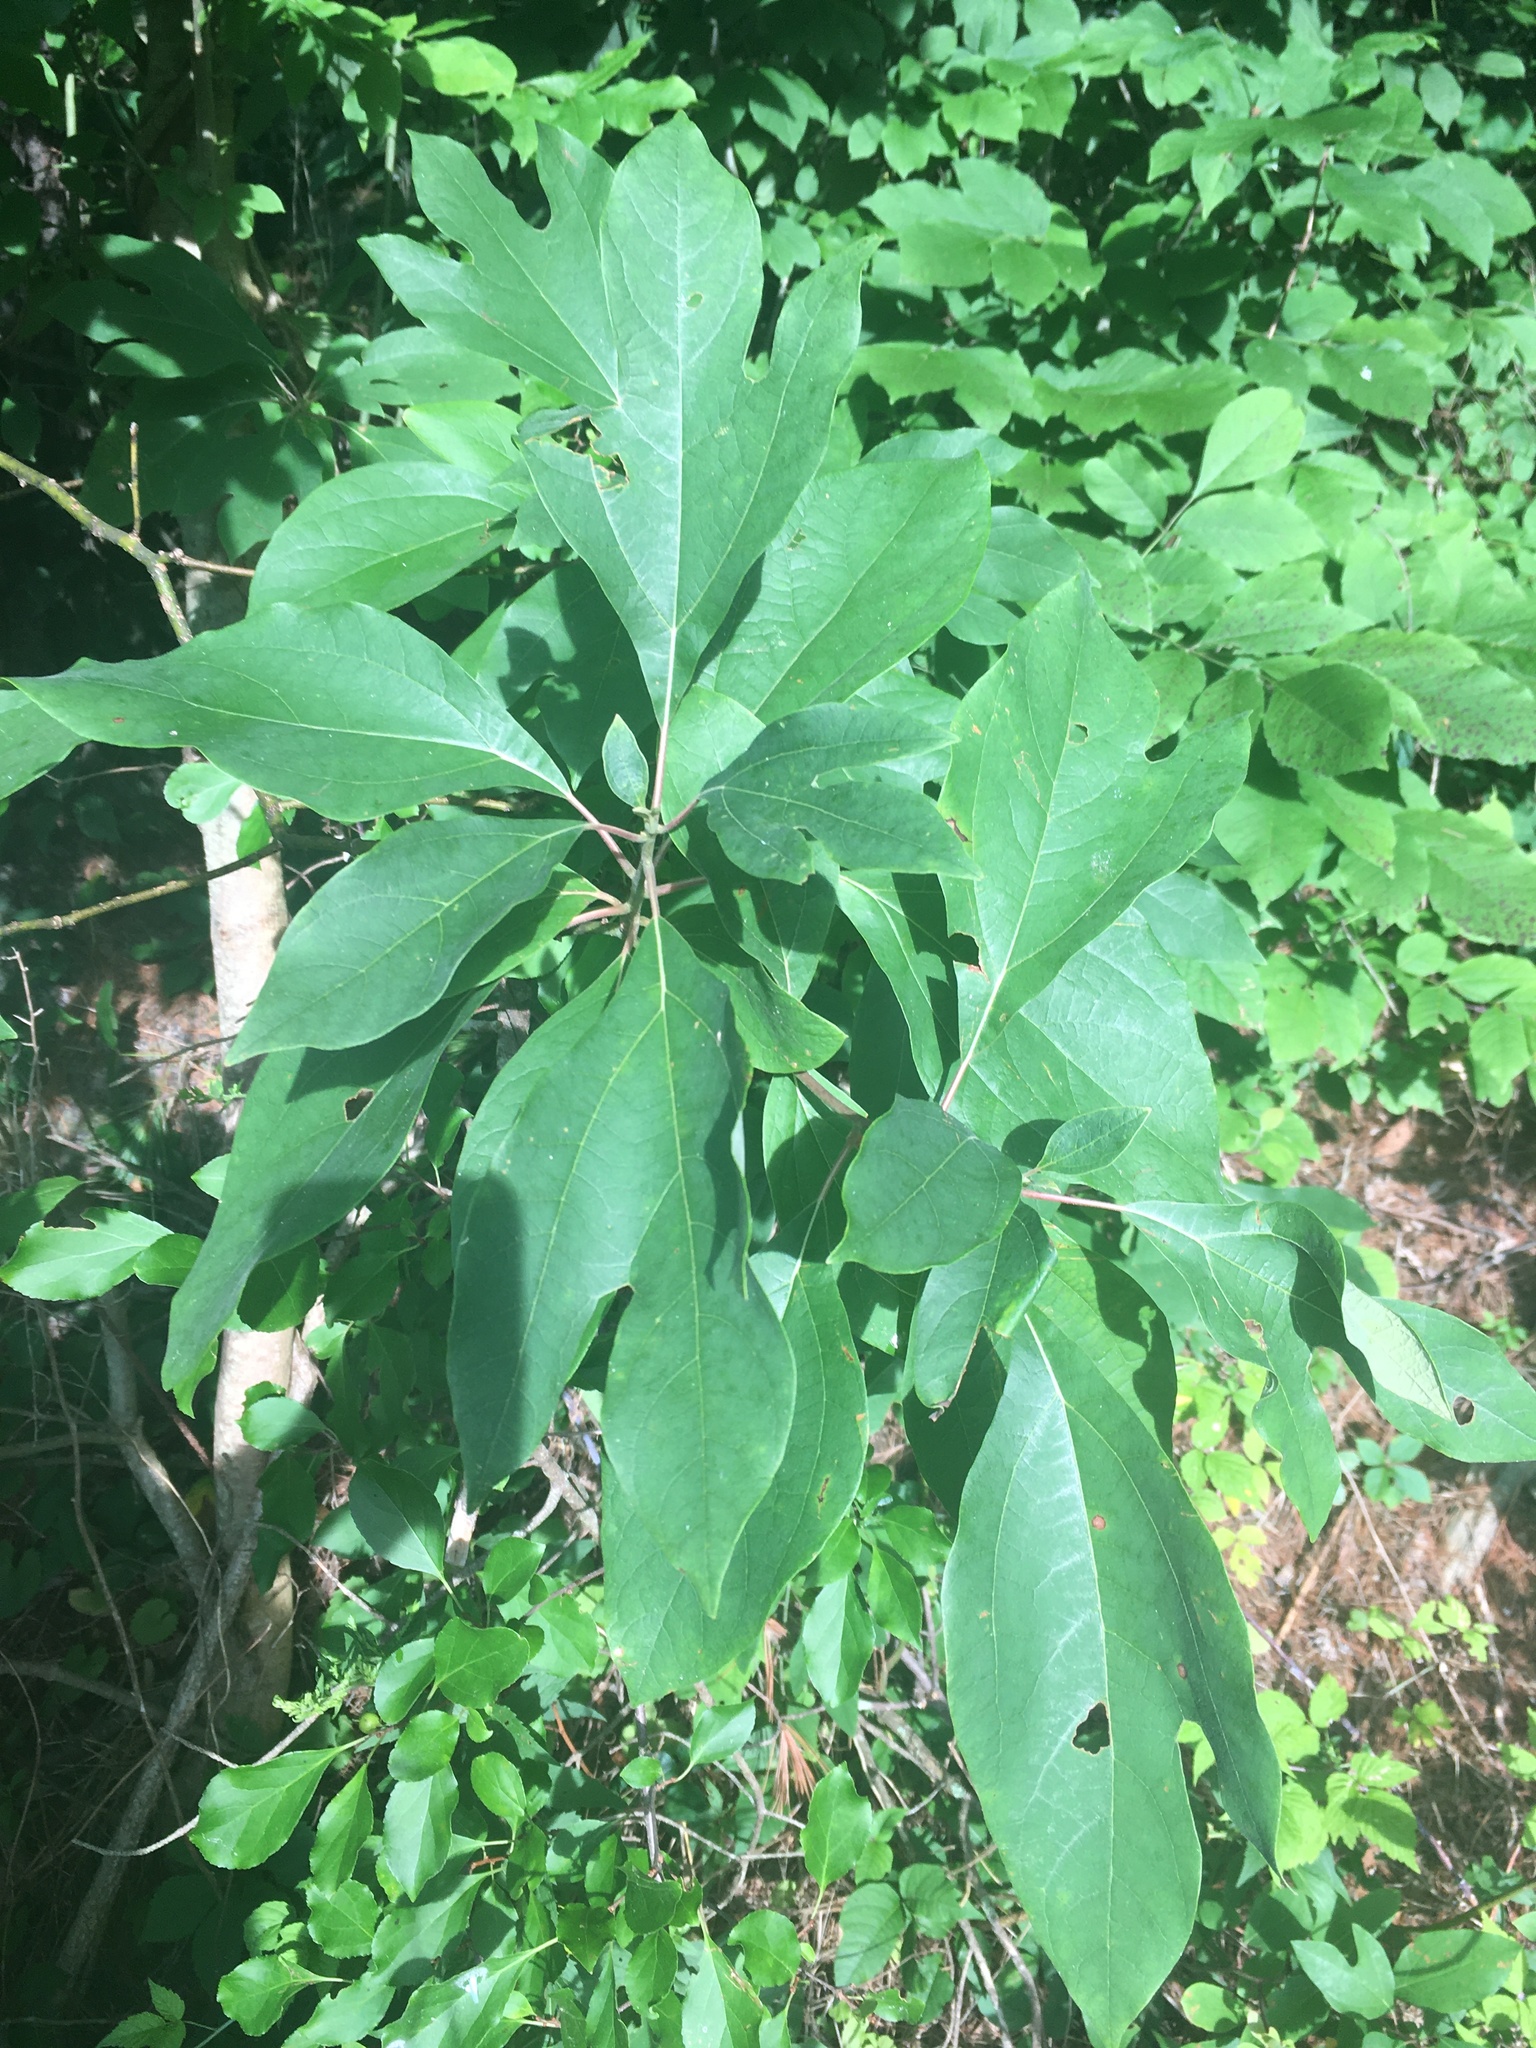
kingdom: Plantae
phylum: Tracheophyta
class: Magnoliopsida
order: Laurales
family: Lauraceae
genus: Sassafras
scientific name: Sassafras albidum
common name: Sassafras
